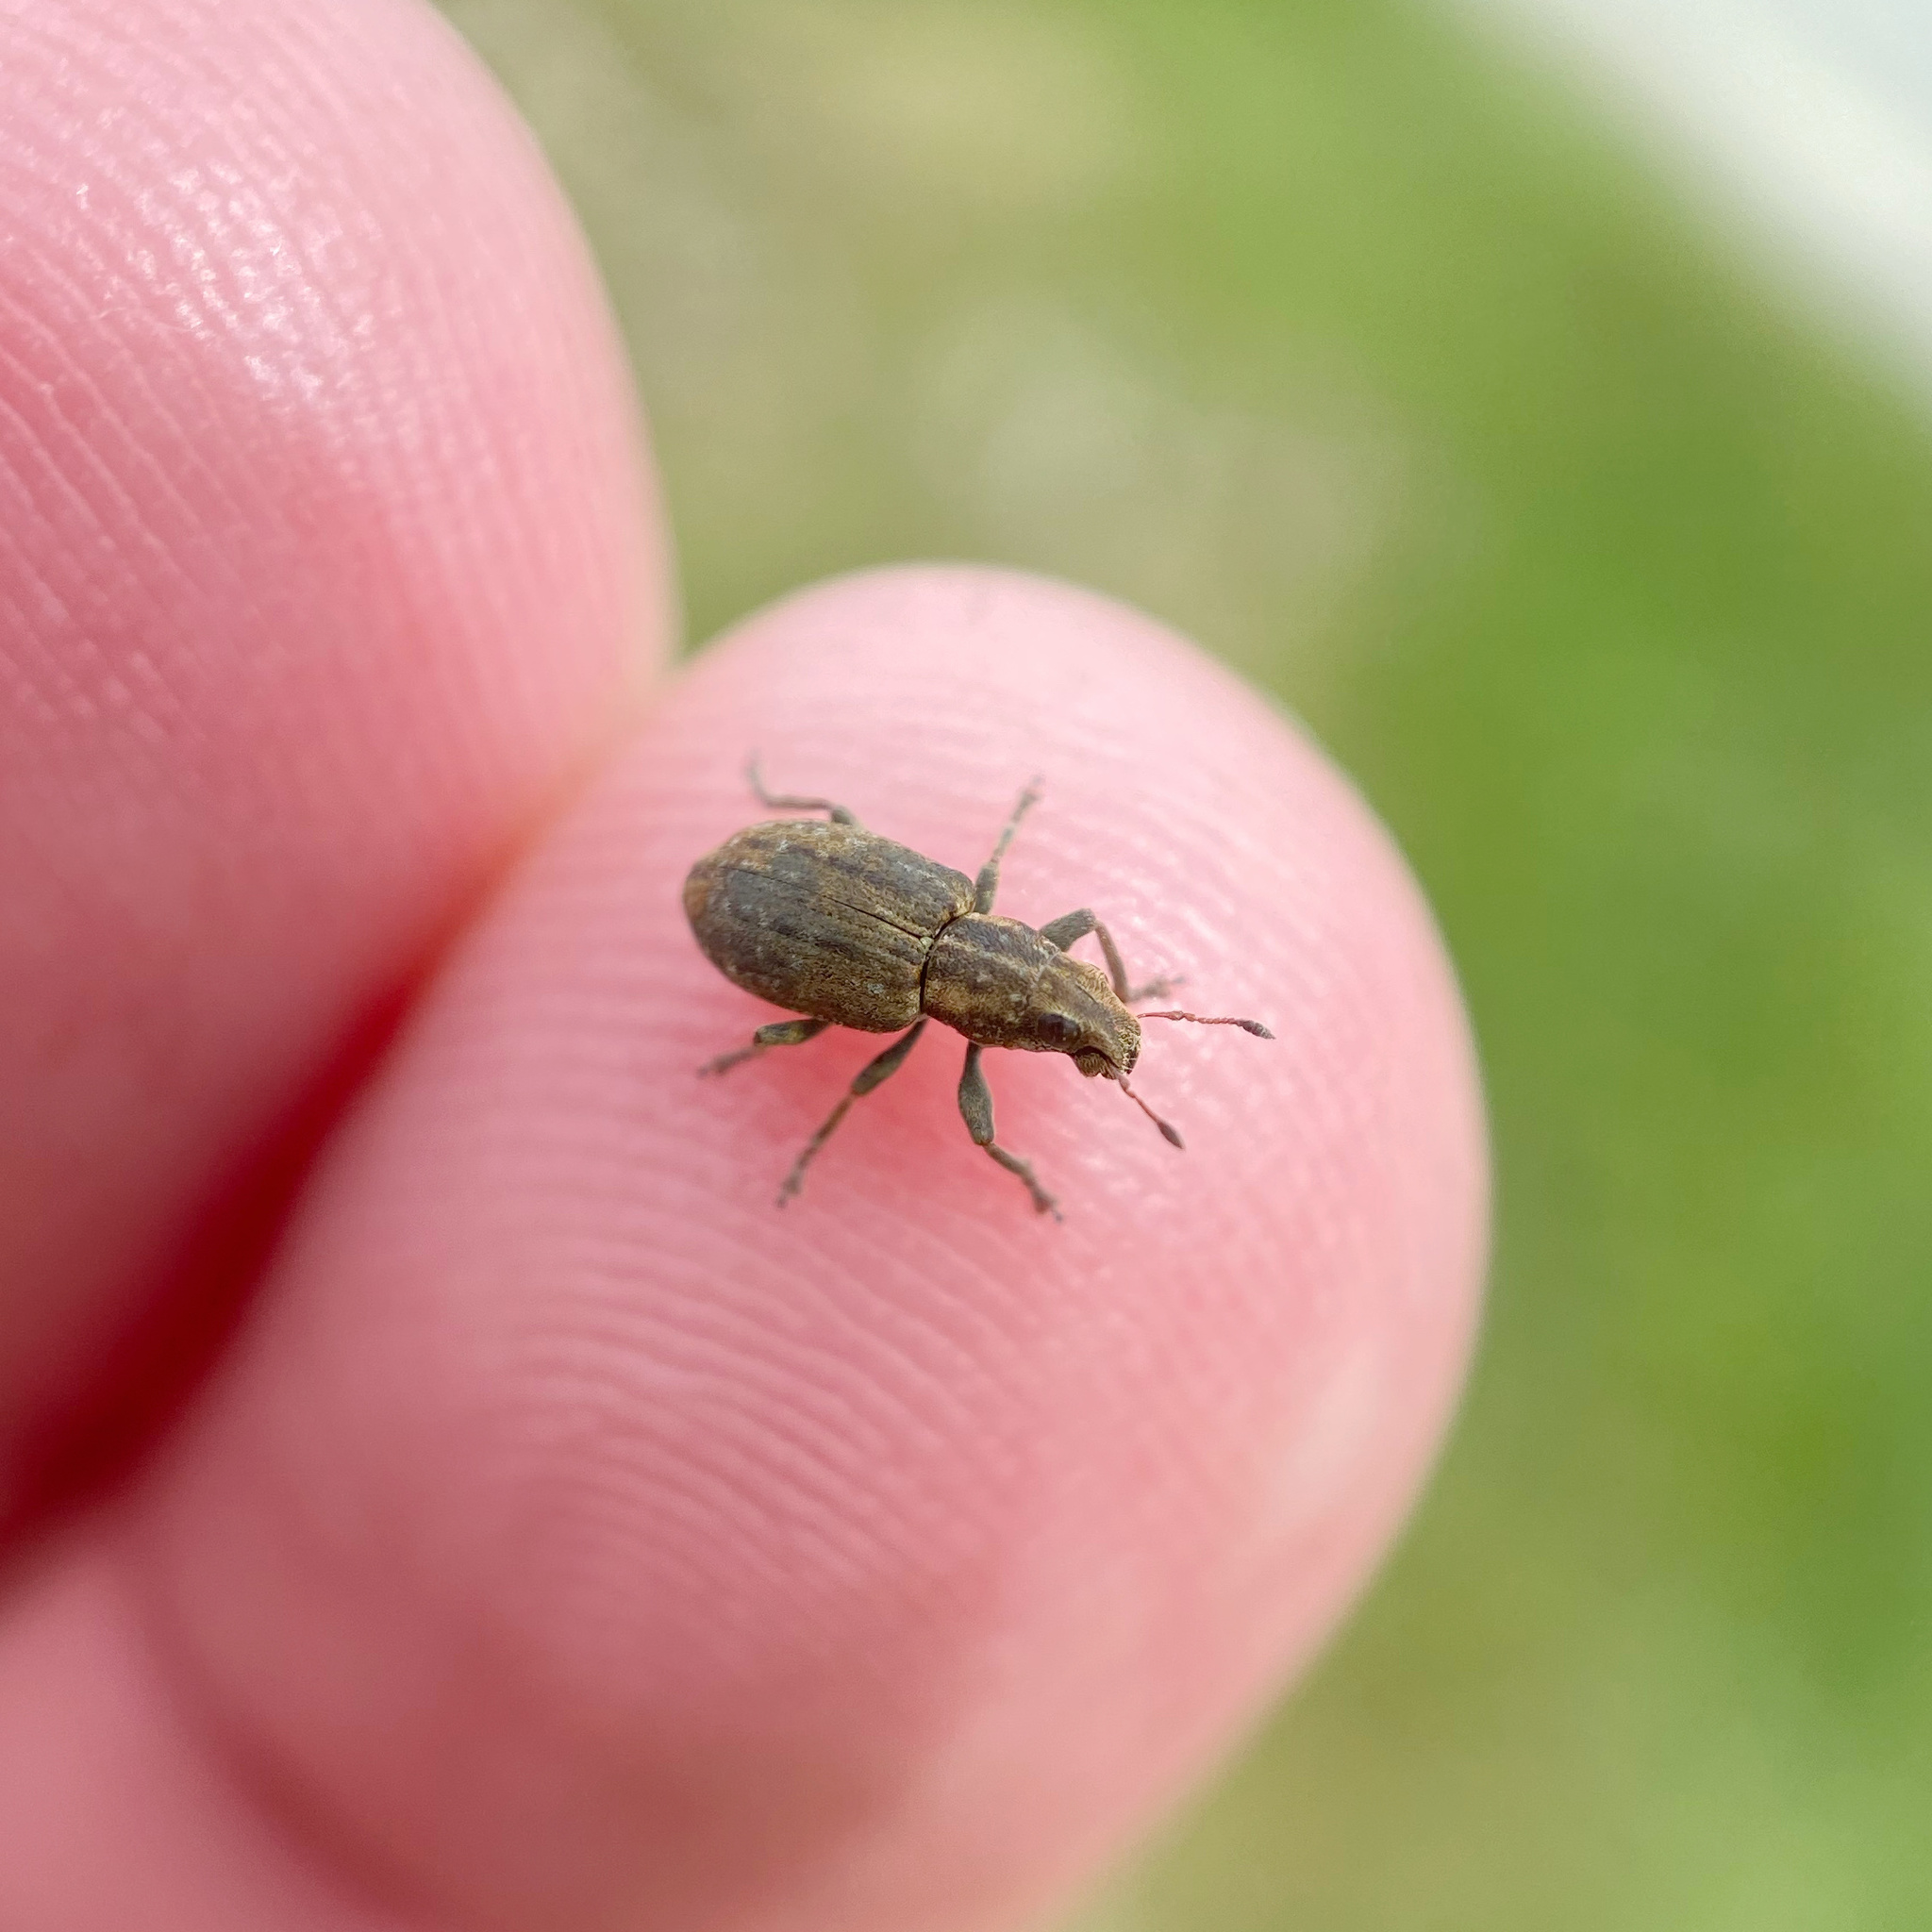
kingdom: Animalia
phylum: Arthropoda
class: Insecta
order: Coleoptera
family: Curculionidae
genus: Sitona
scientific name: Sitona obsoletus
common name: Weevil
